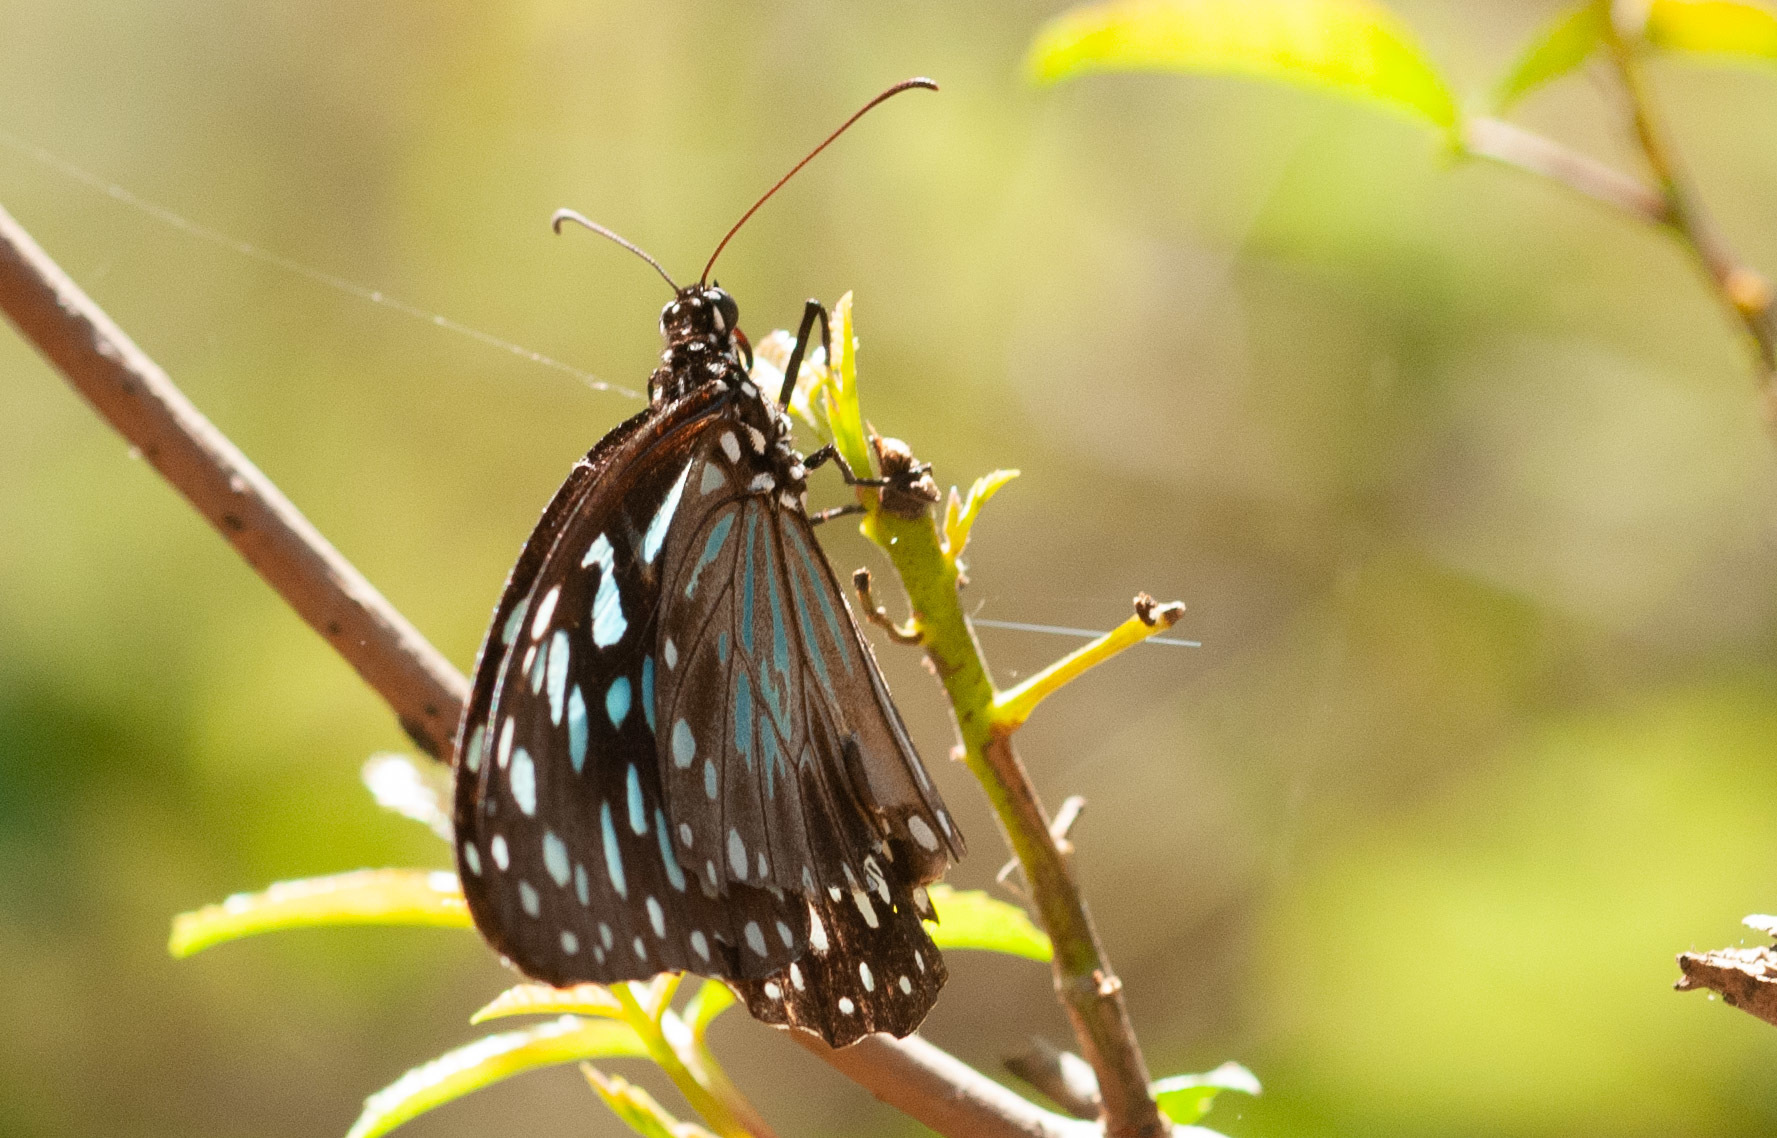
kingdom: Animalia
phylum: Arthropoda
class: Insecta
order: Lepidoptera
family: Nymphalidae
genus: Tirumala
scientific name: Tirumala hamata
